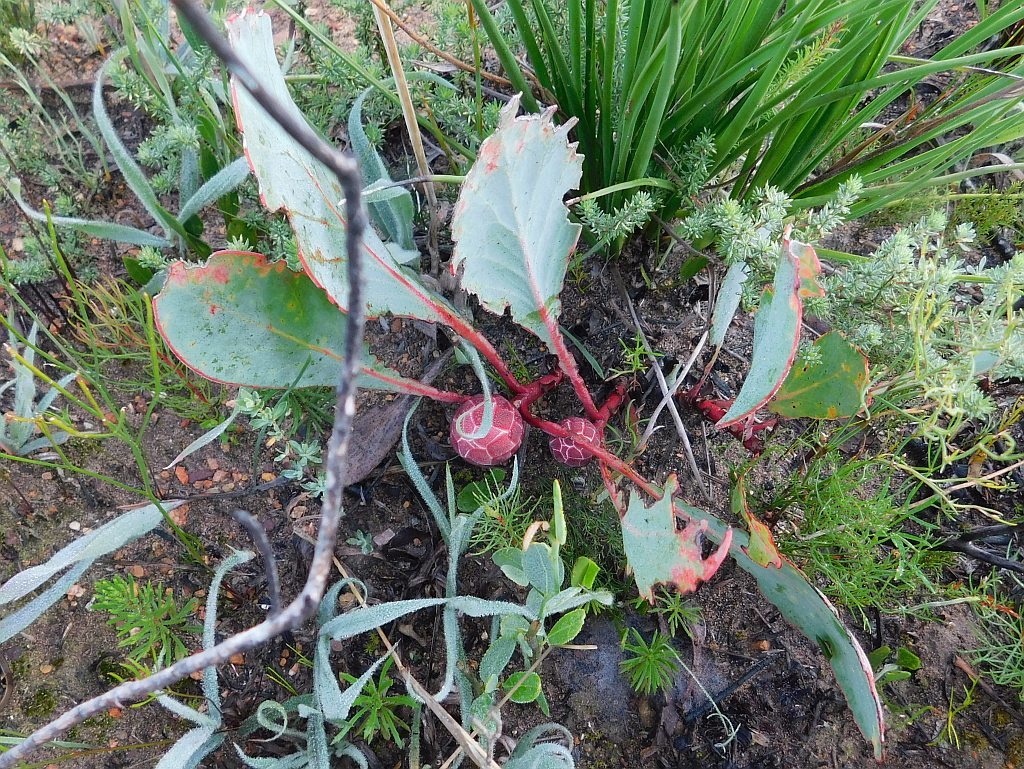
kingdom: Plantae
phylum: Tracheophyta
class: Magnoliopsida
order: Proteales
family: Proteaceae
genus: Protea
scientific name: Protea acaulos
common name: Common ground sugarbush
